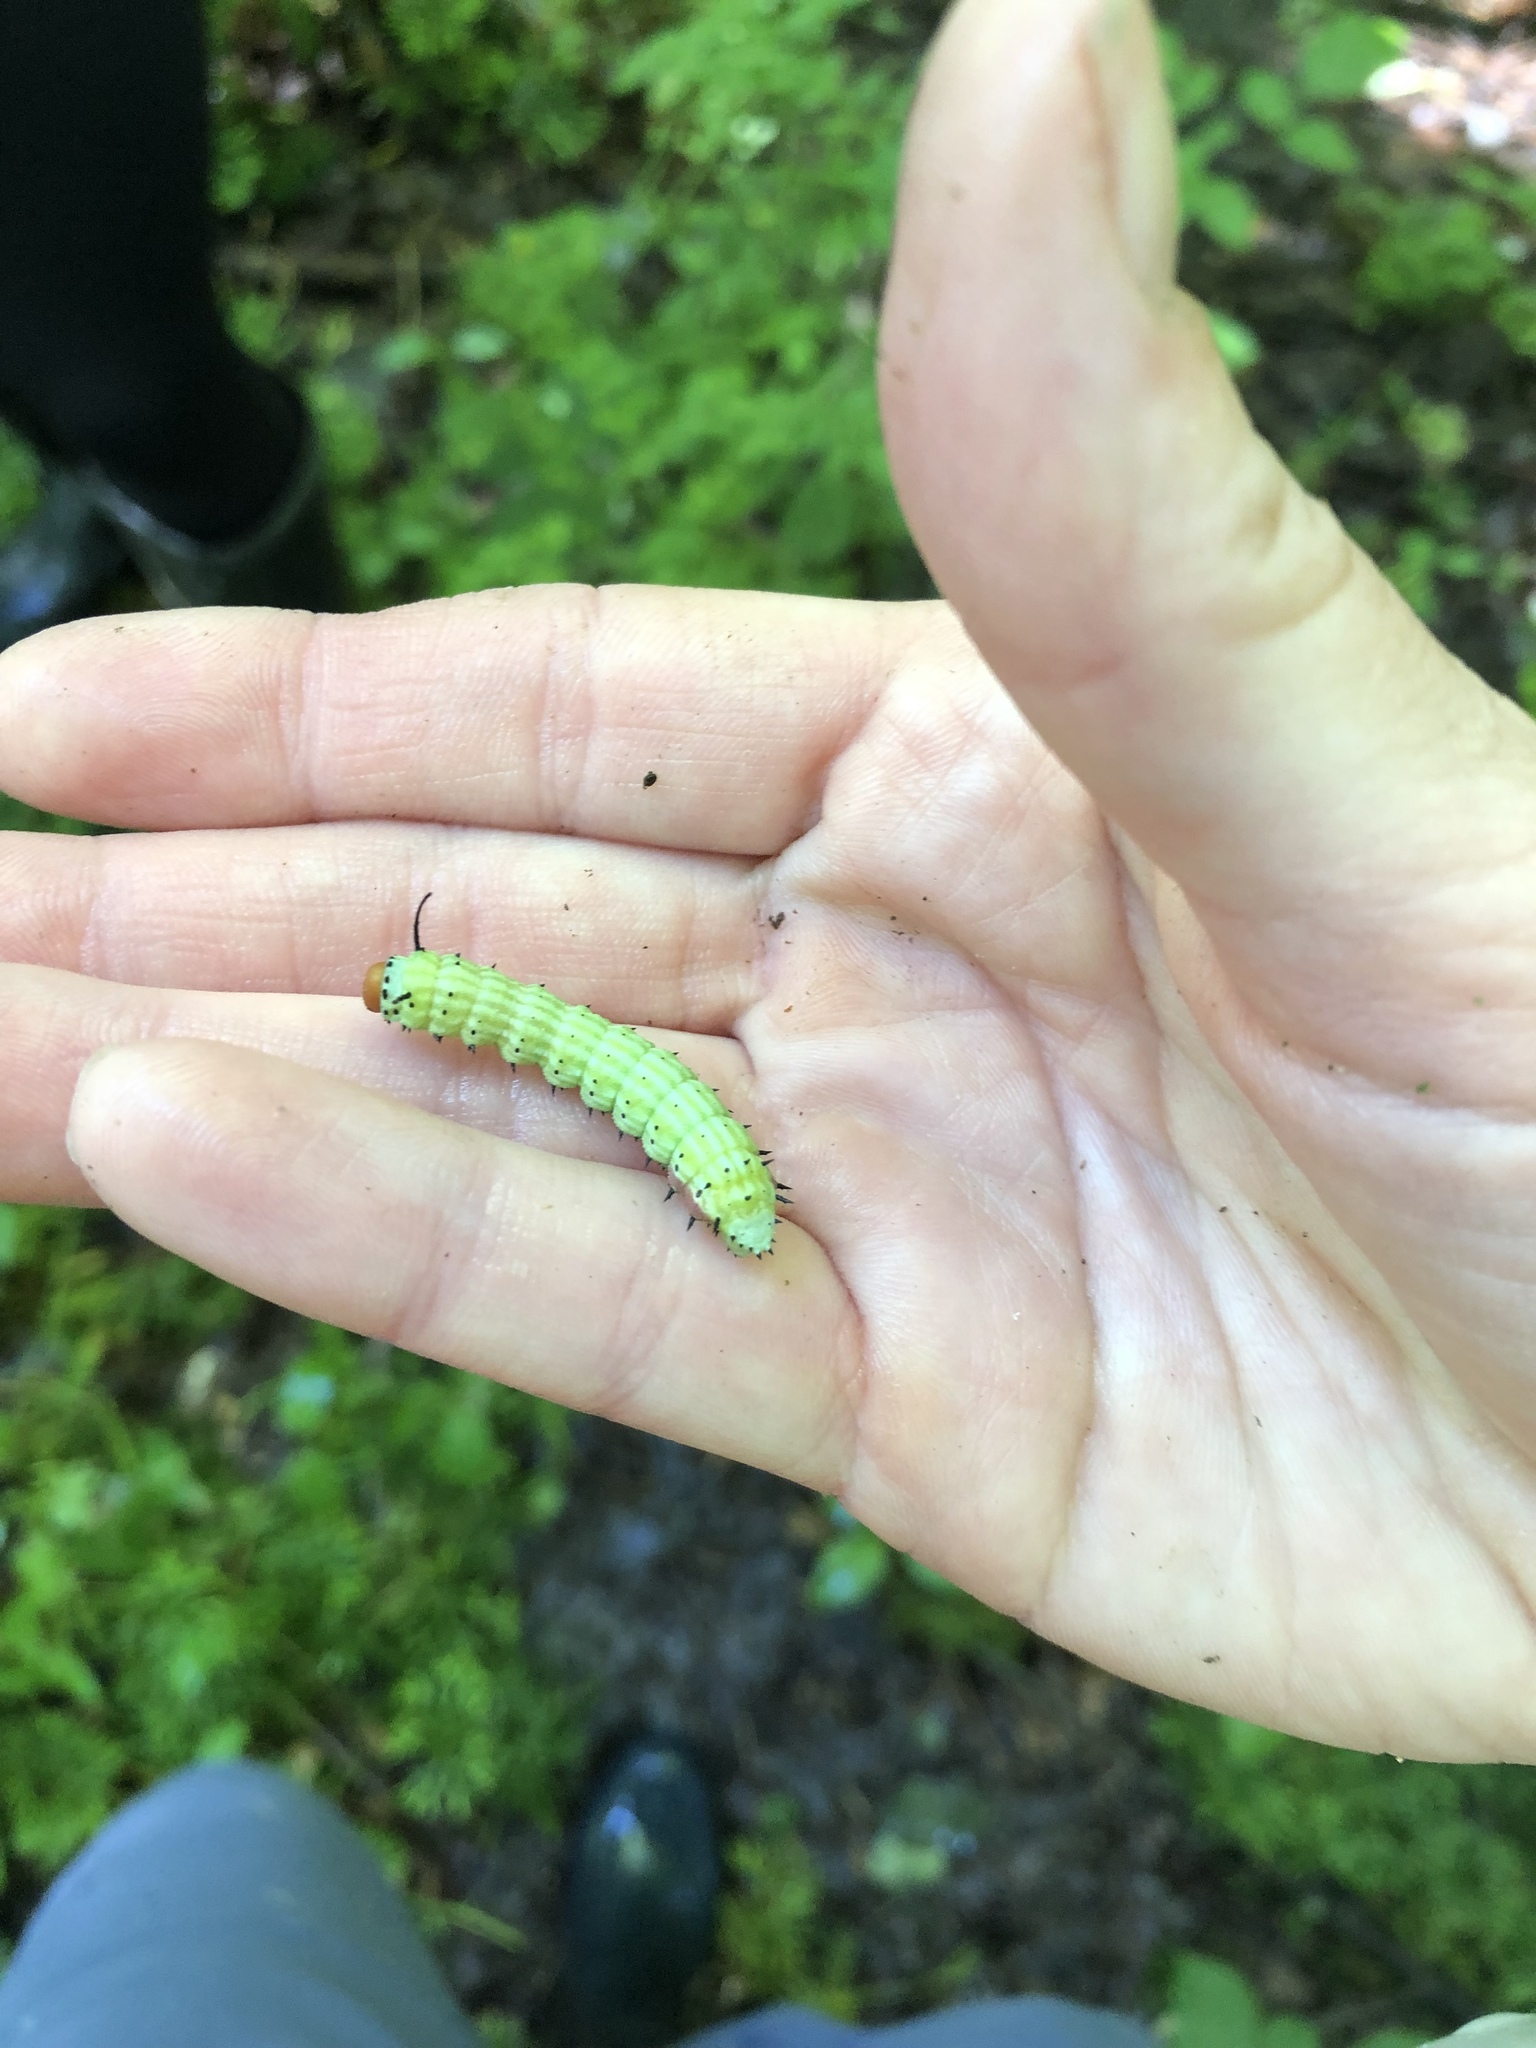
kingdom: Animalia
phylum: Arthropoda
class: Insecta
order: Lepidoptera
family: Saturniidae
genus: Dryocampa
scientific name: Dryocampa rubicunda
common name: Rosy maple moth
